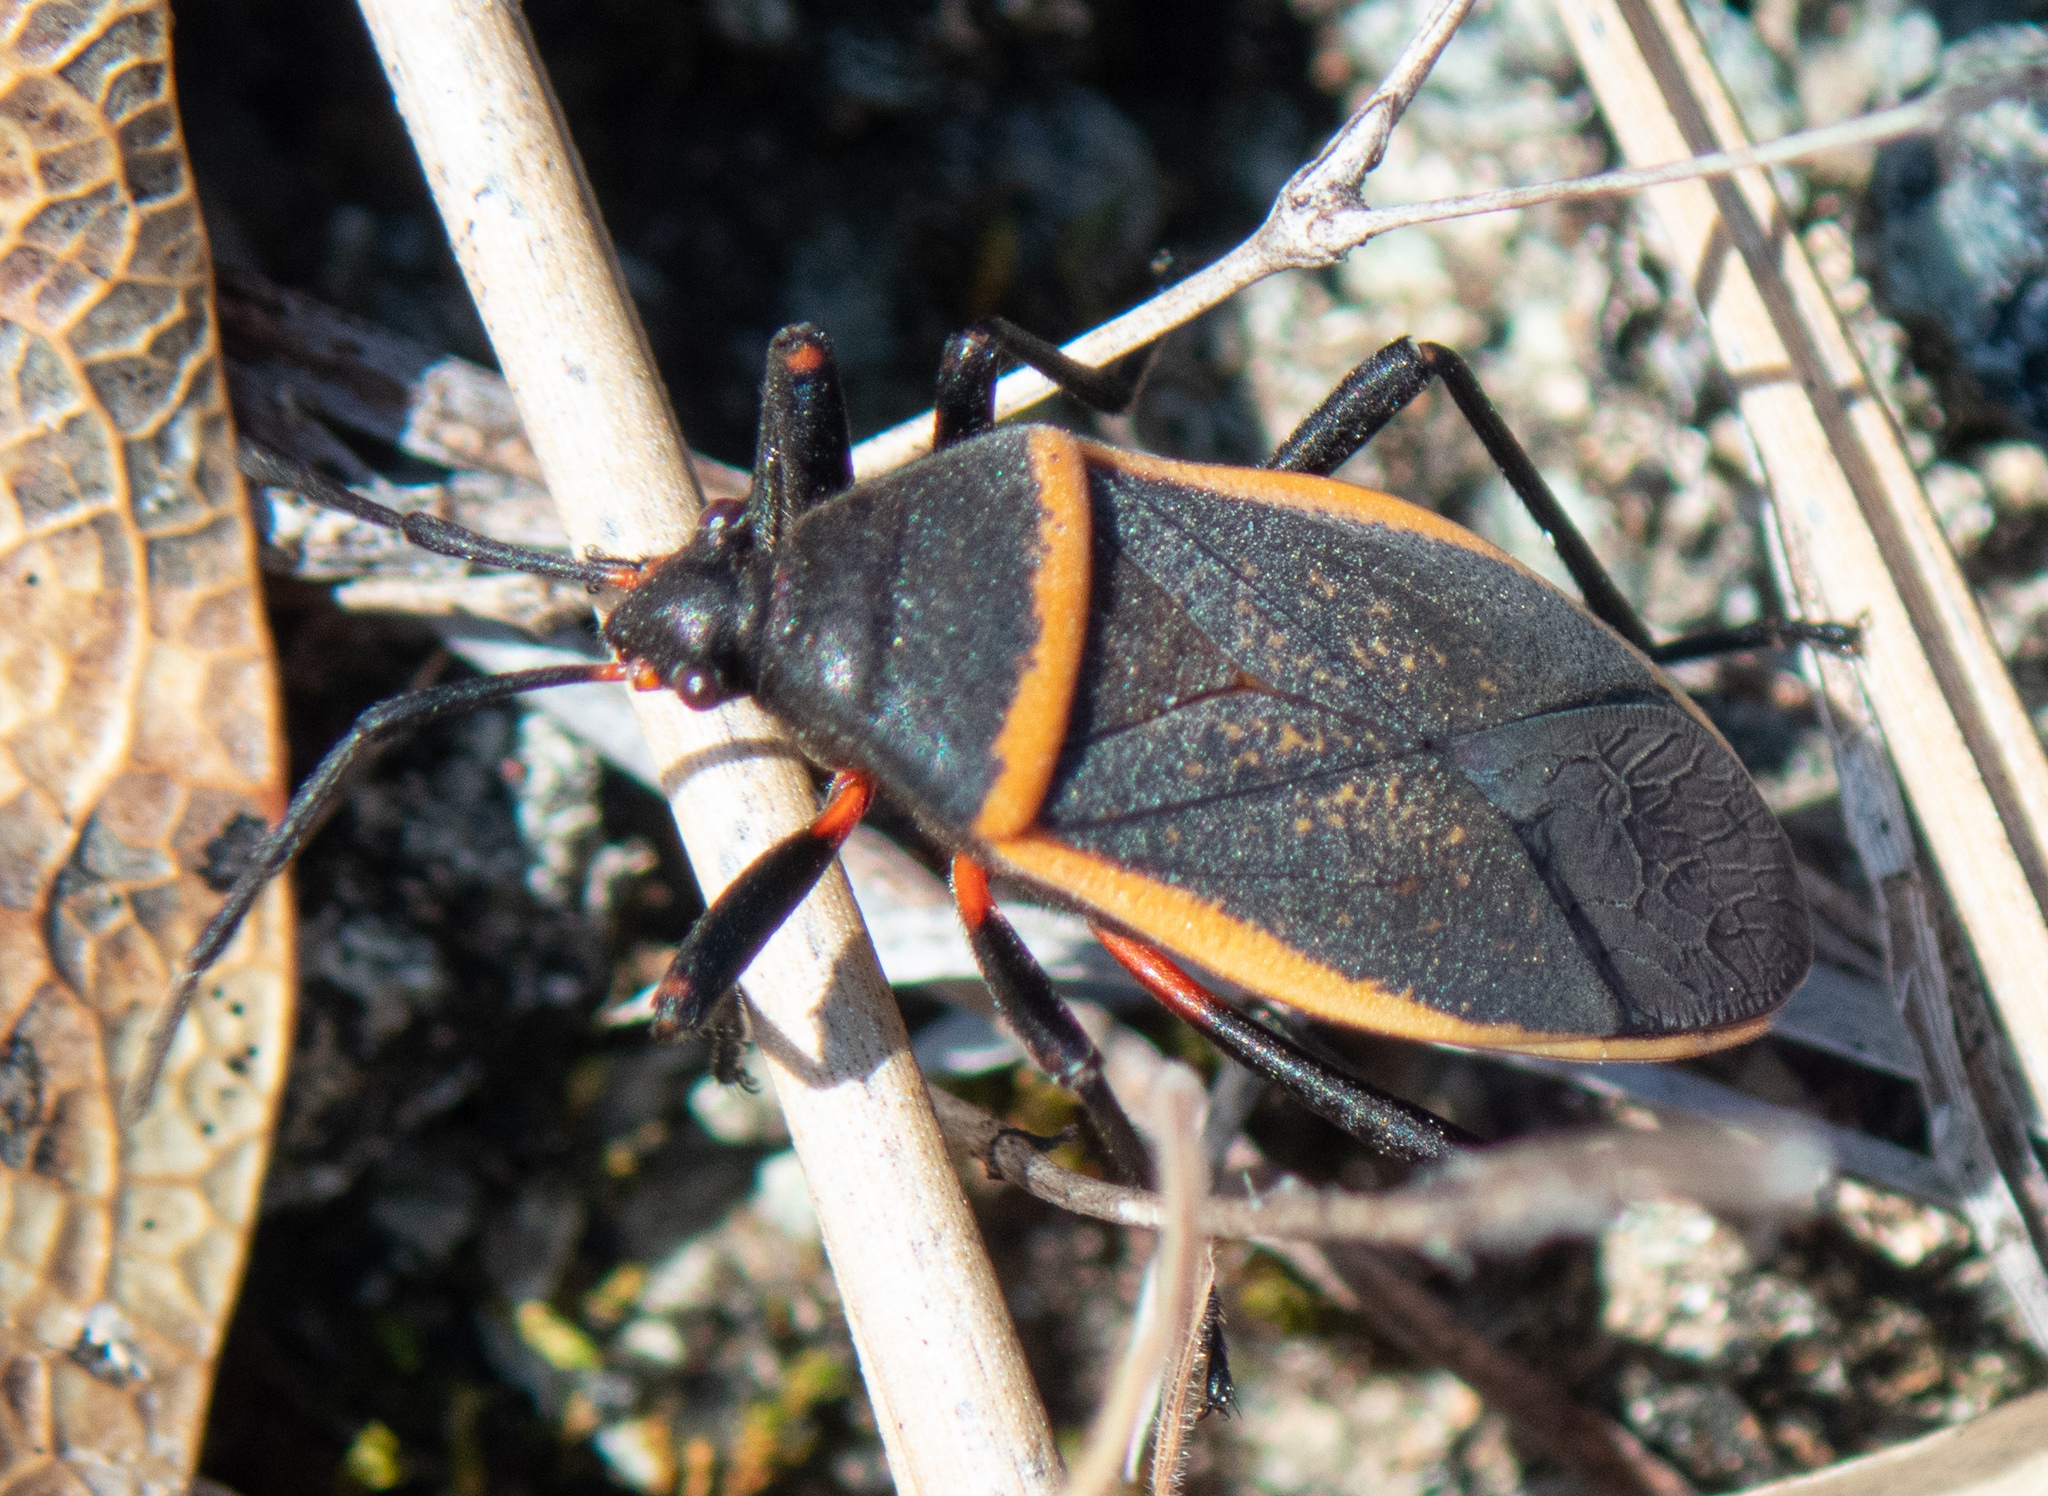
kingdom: Animalia
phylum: Arthropoda
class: Insecta
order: Hemiptera
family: Largidae
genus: Largus
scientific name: Largus californicus
